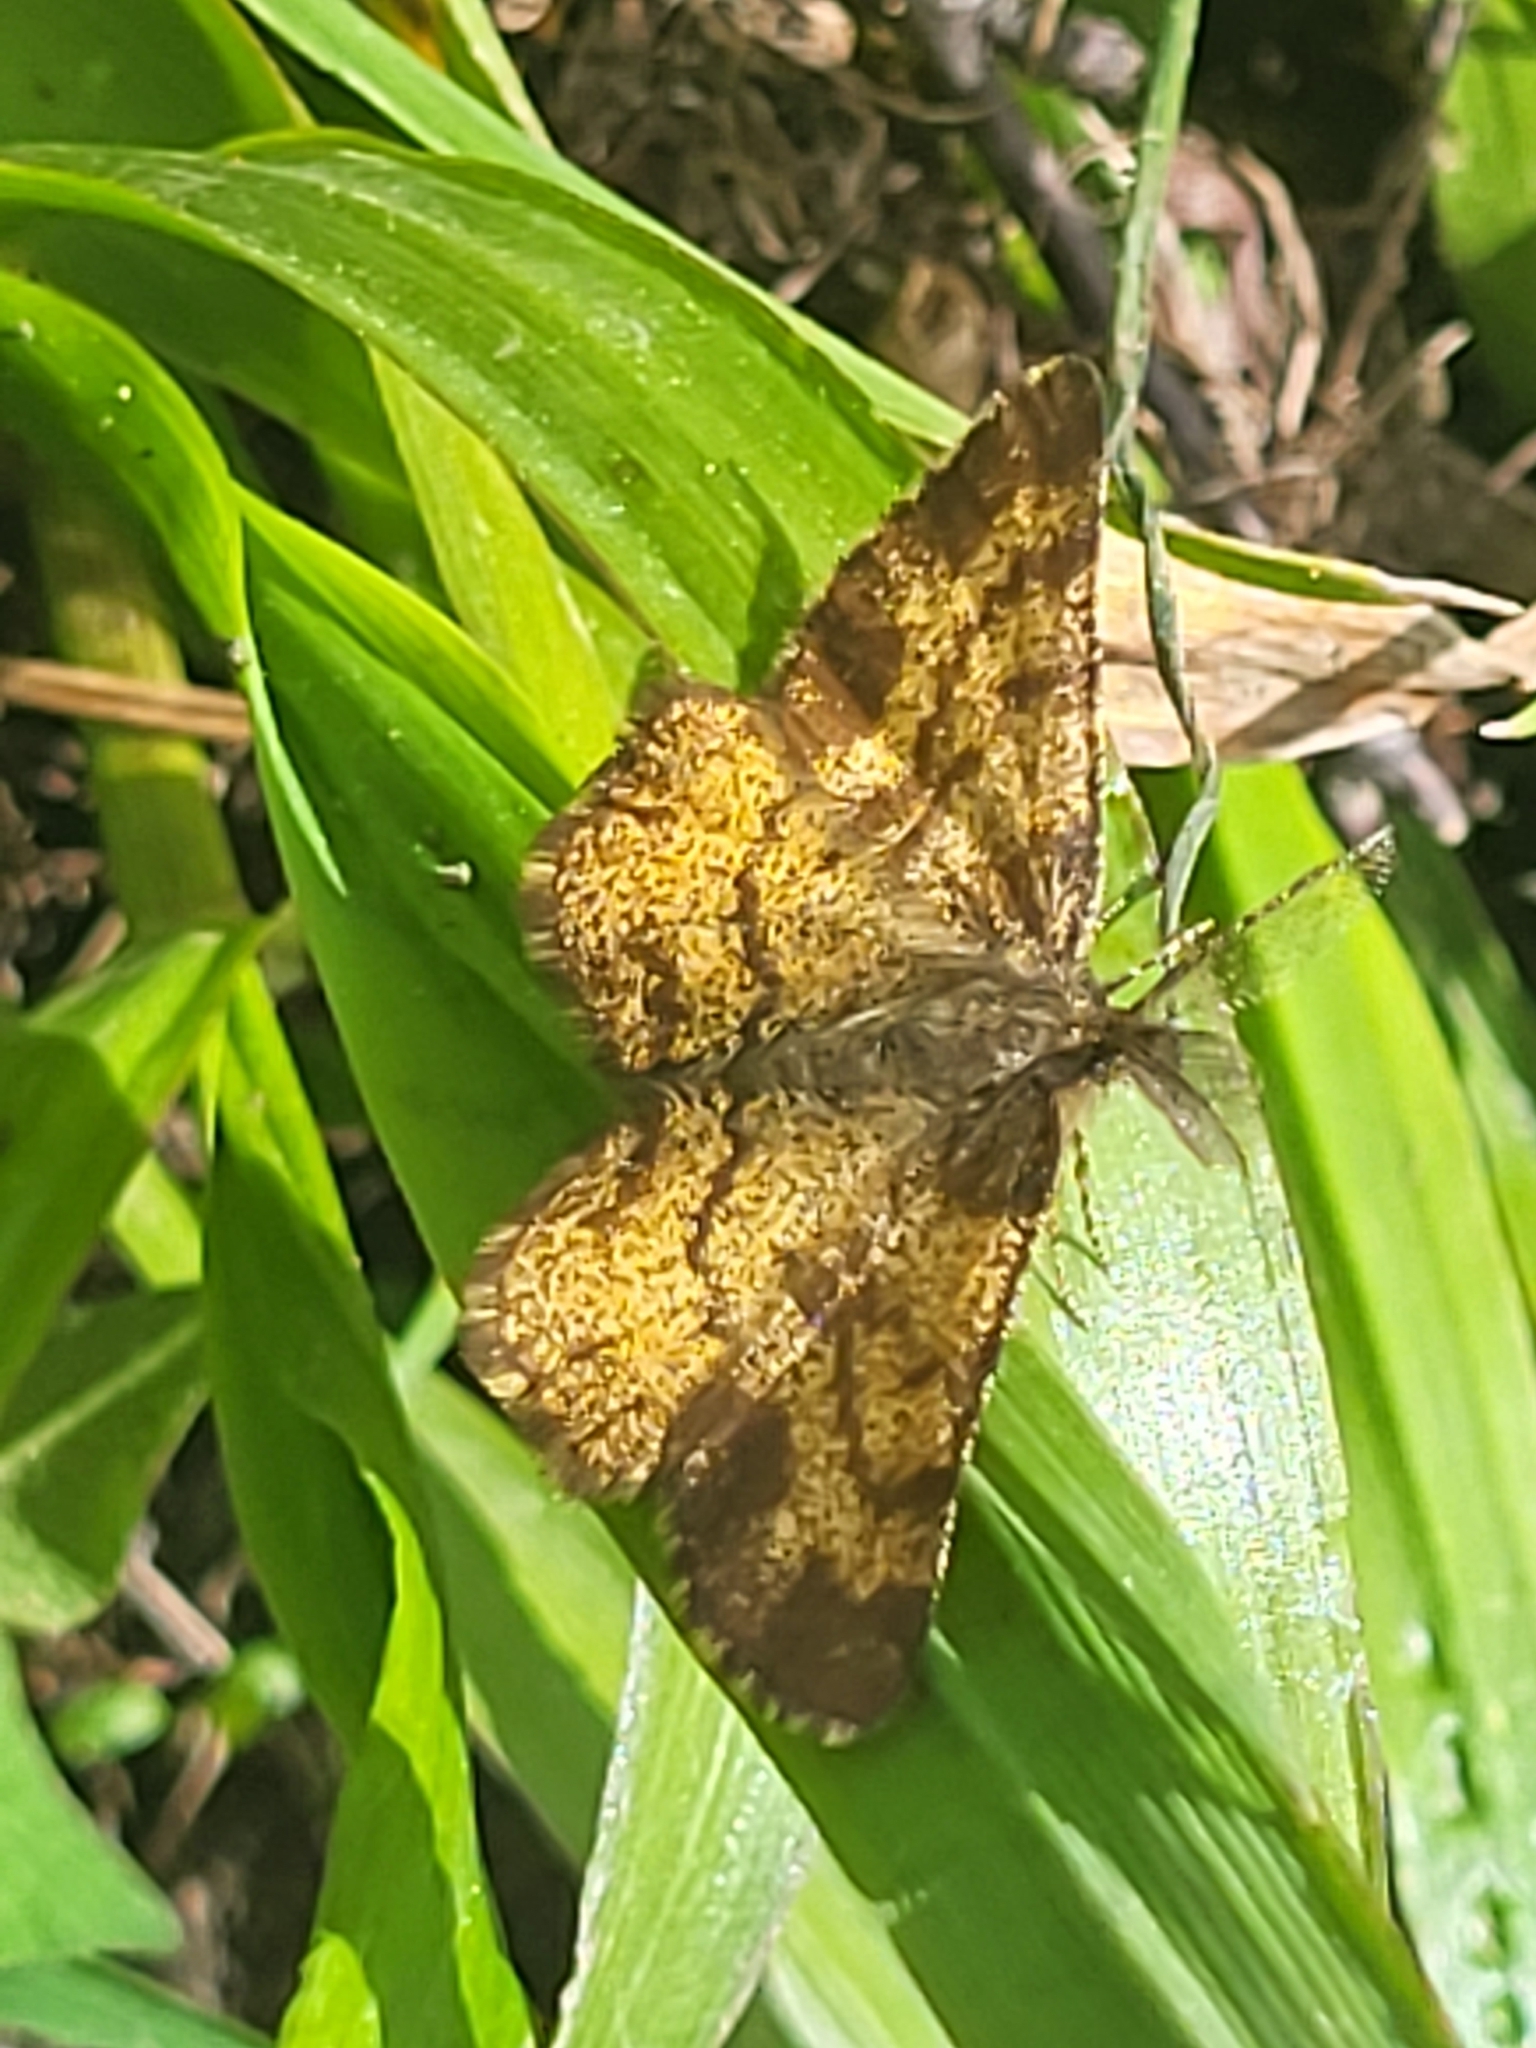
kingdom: Animalia
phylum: Arthropoda
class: Insecta
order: Lepidoptera
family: Geometridae
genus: Ematurga
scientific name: Ematurga atomaria
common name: Common heath
